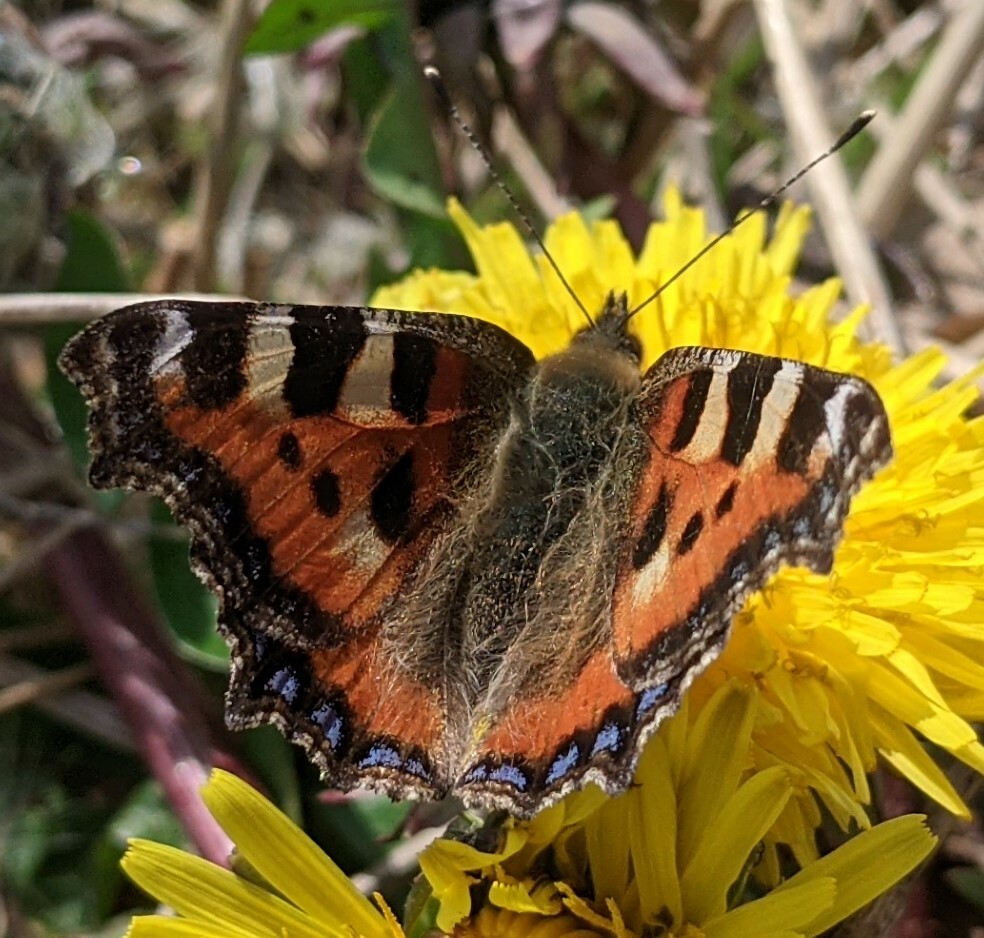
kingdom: Animalia
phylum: Arthropoda
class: Insecta
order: Lepidoptera
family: Nymphalidae
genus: Aglais
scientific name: Aglais urticae
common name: Small tortoiseshell
